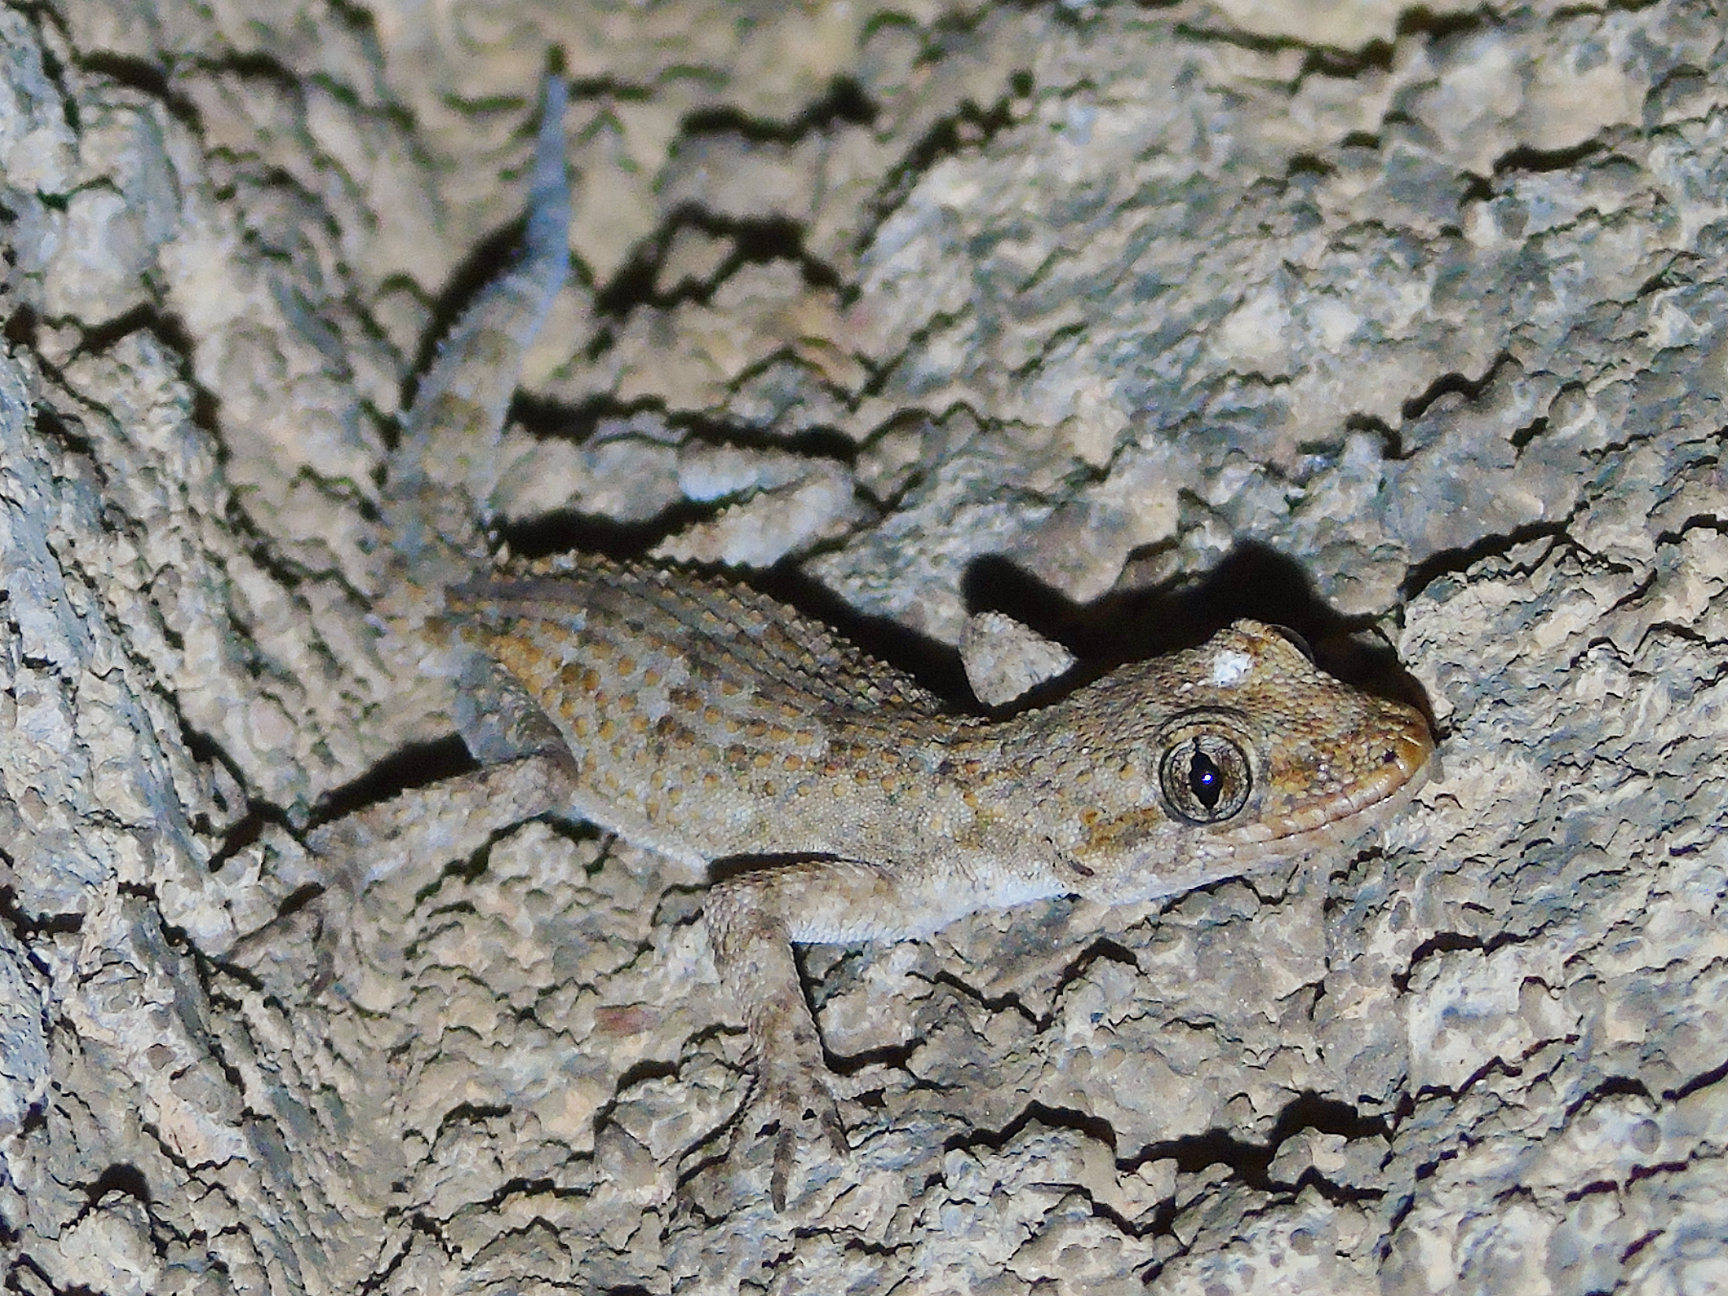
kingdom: Animalia
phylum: Chordata
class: Squamata
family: Gekkonidae
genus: Mediodactylus
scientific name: Mediodactylus kotschyi
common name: Kotschy's gecko
